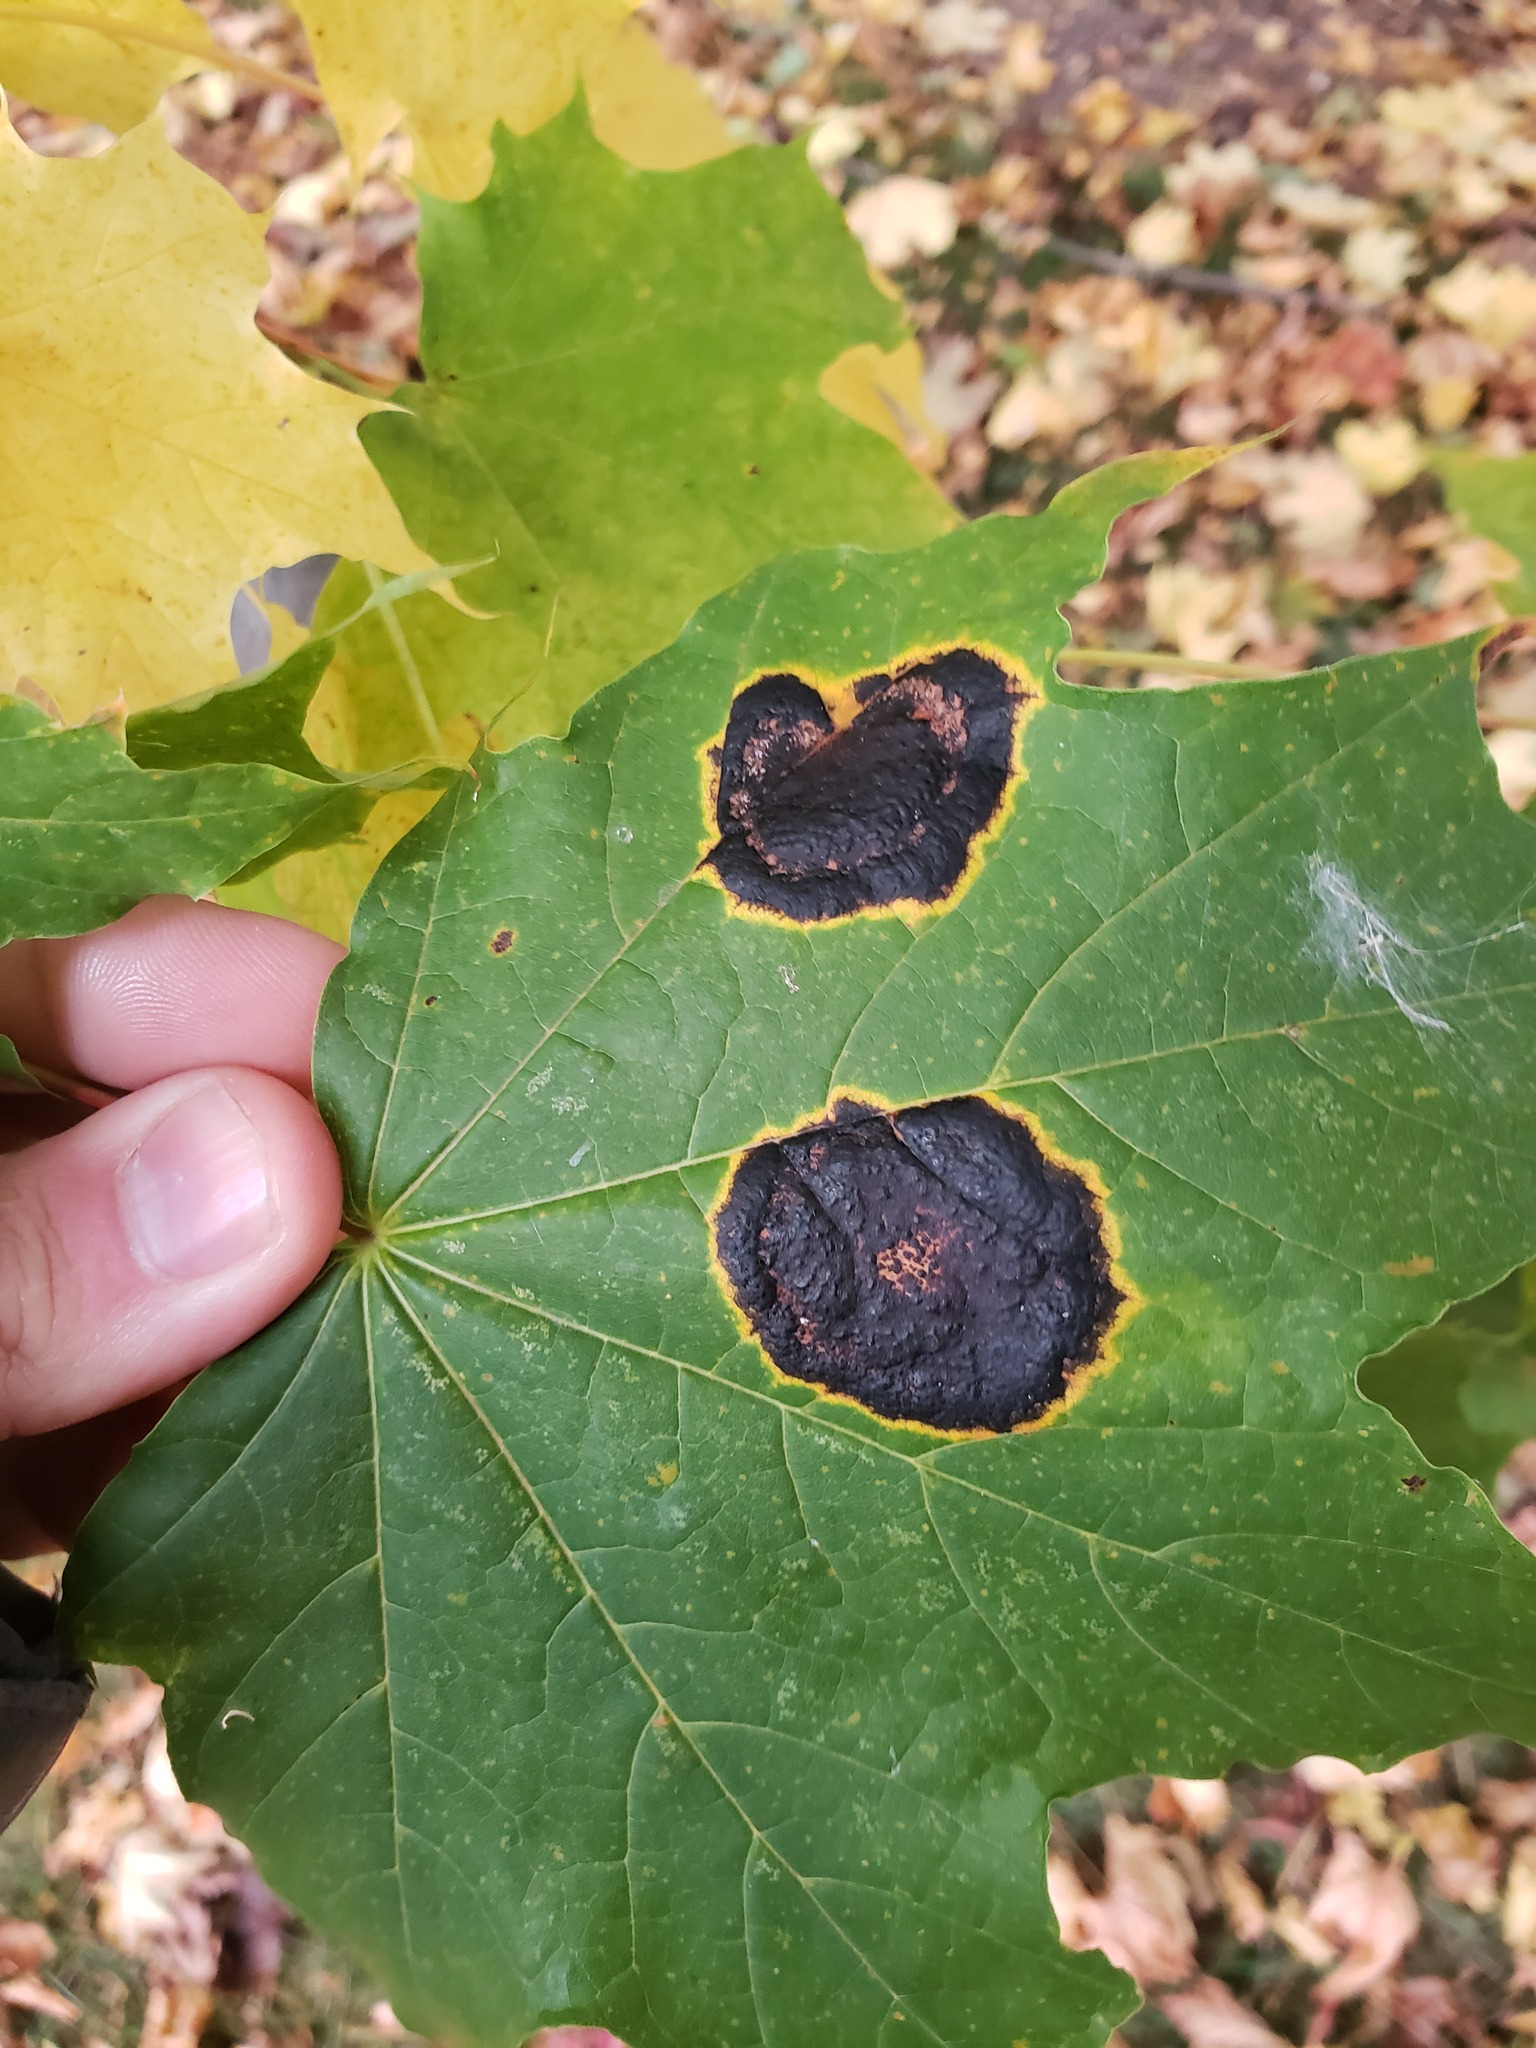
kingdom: Fungi
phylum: Ascomycota
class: Leotiomycetes
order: Rhytismatales
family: Rhytismataceae
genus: Rhytisma
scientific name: Rhytisma acerinum
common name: European tar spot
